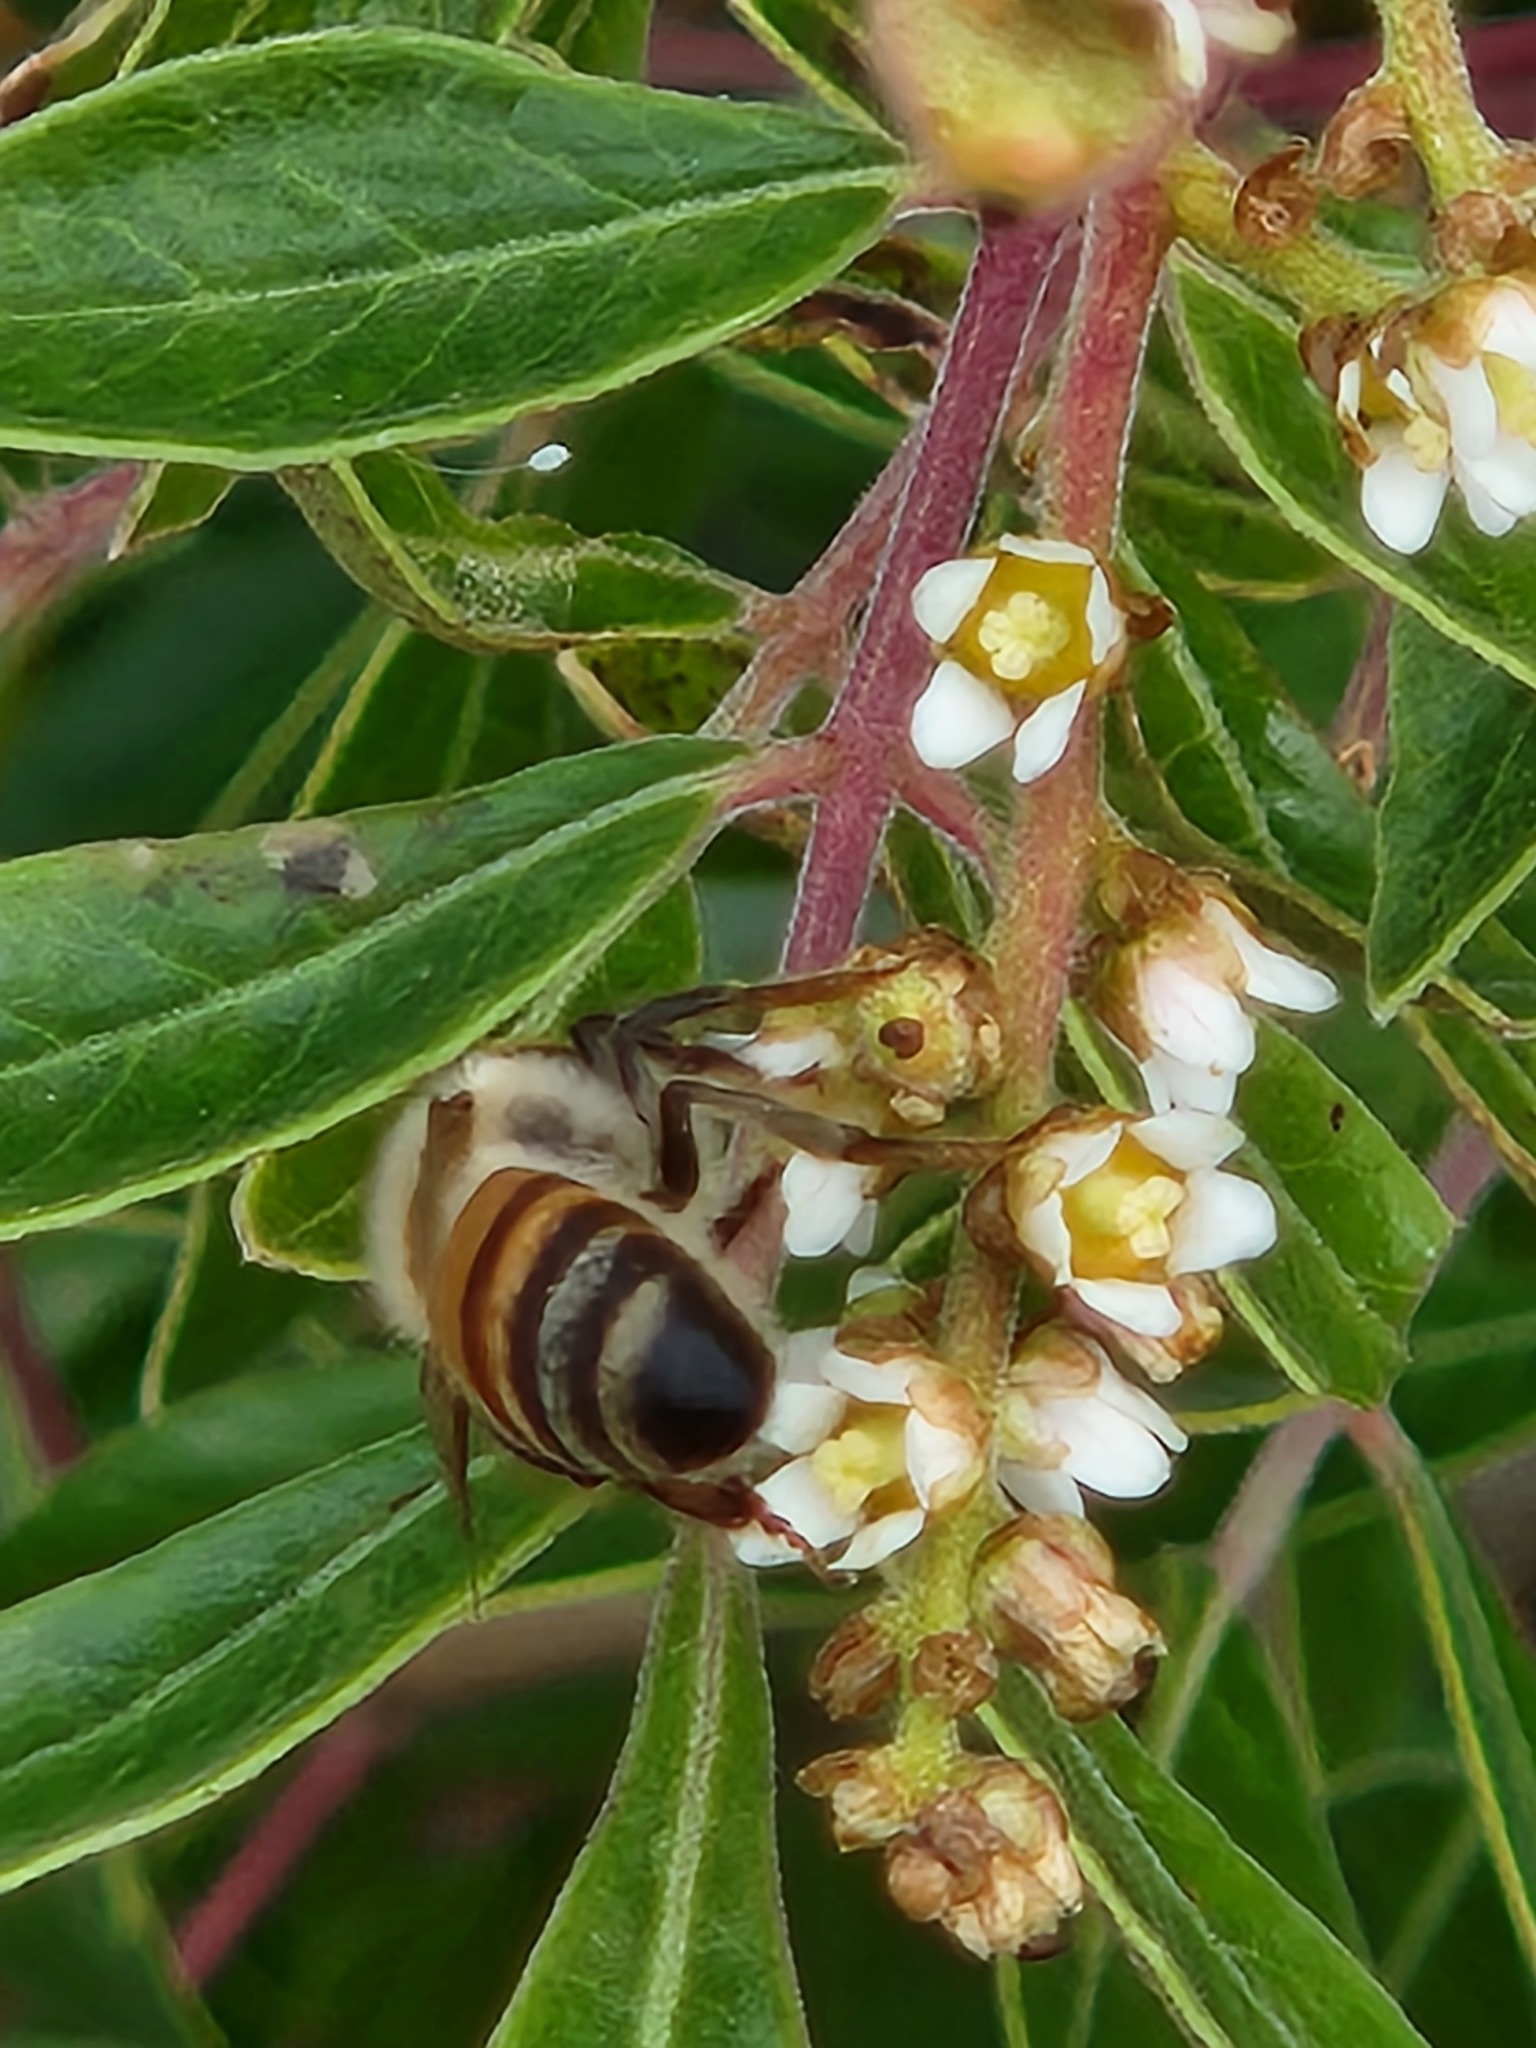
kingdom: Animalia
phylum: Arthropoda
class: Insecta
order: Hymenoptera
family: Apidae
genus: Apis
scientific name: Apis mellifera
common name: Honey bee
